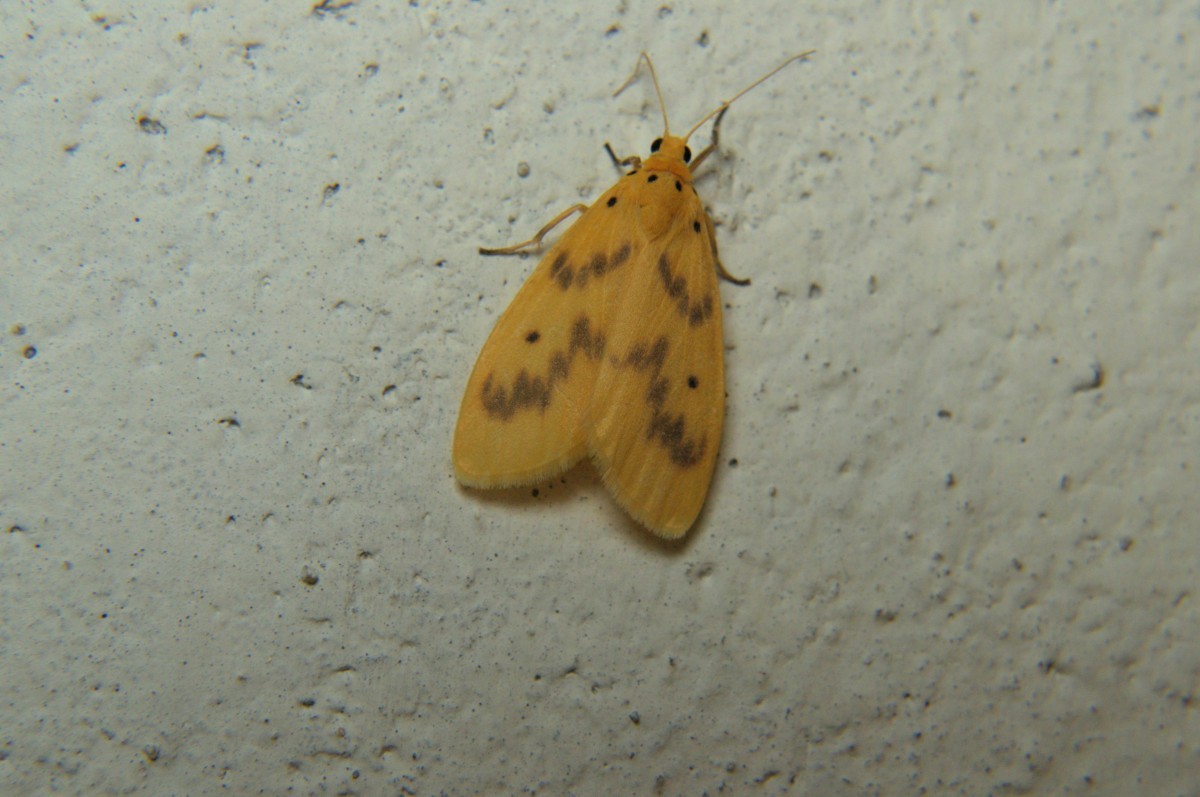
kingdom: Animalia
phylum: Arthropoda
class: Insecta
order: Lepidoptera
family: Erebidae
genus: Miltochrista
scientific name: Miltochrista undulata
